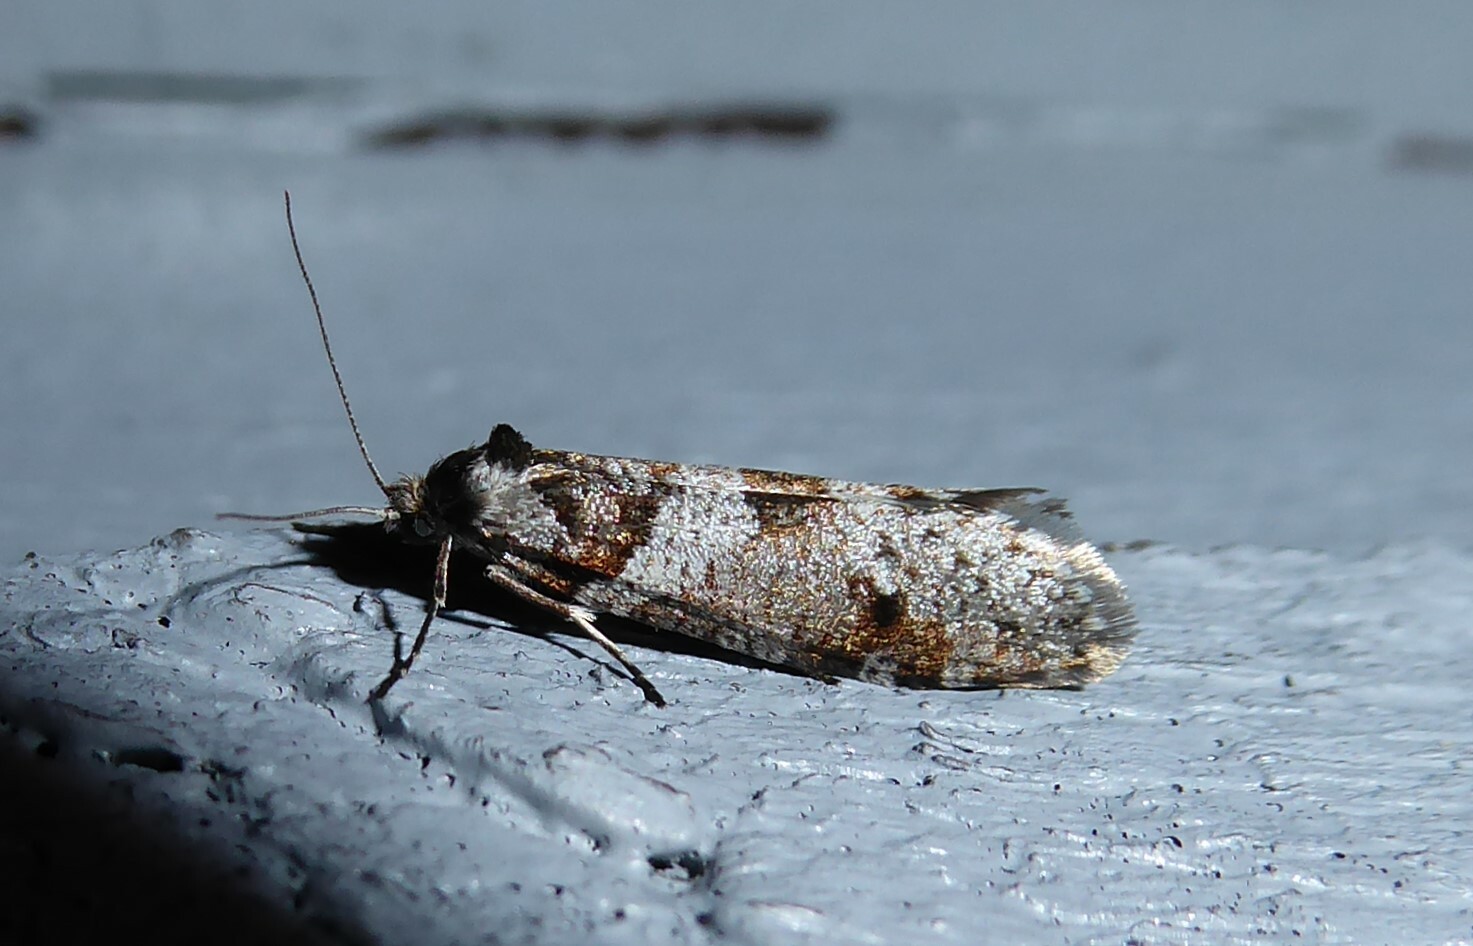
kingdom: Animalia
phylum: Arthropoda
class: Insecta
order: Lepidoptera
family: Psychidae
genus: Lepidoscia
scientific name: Lepidoscia heliochares
